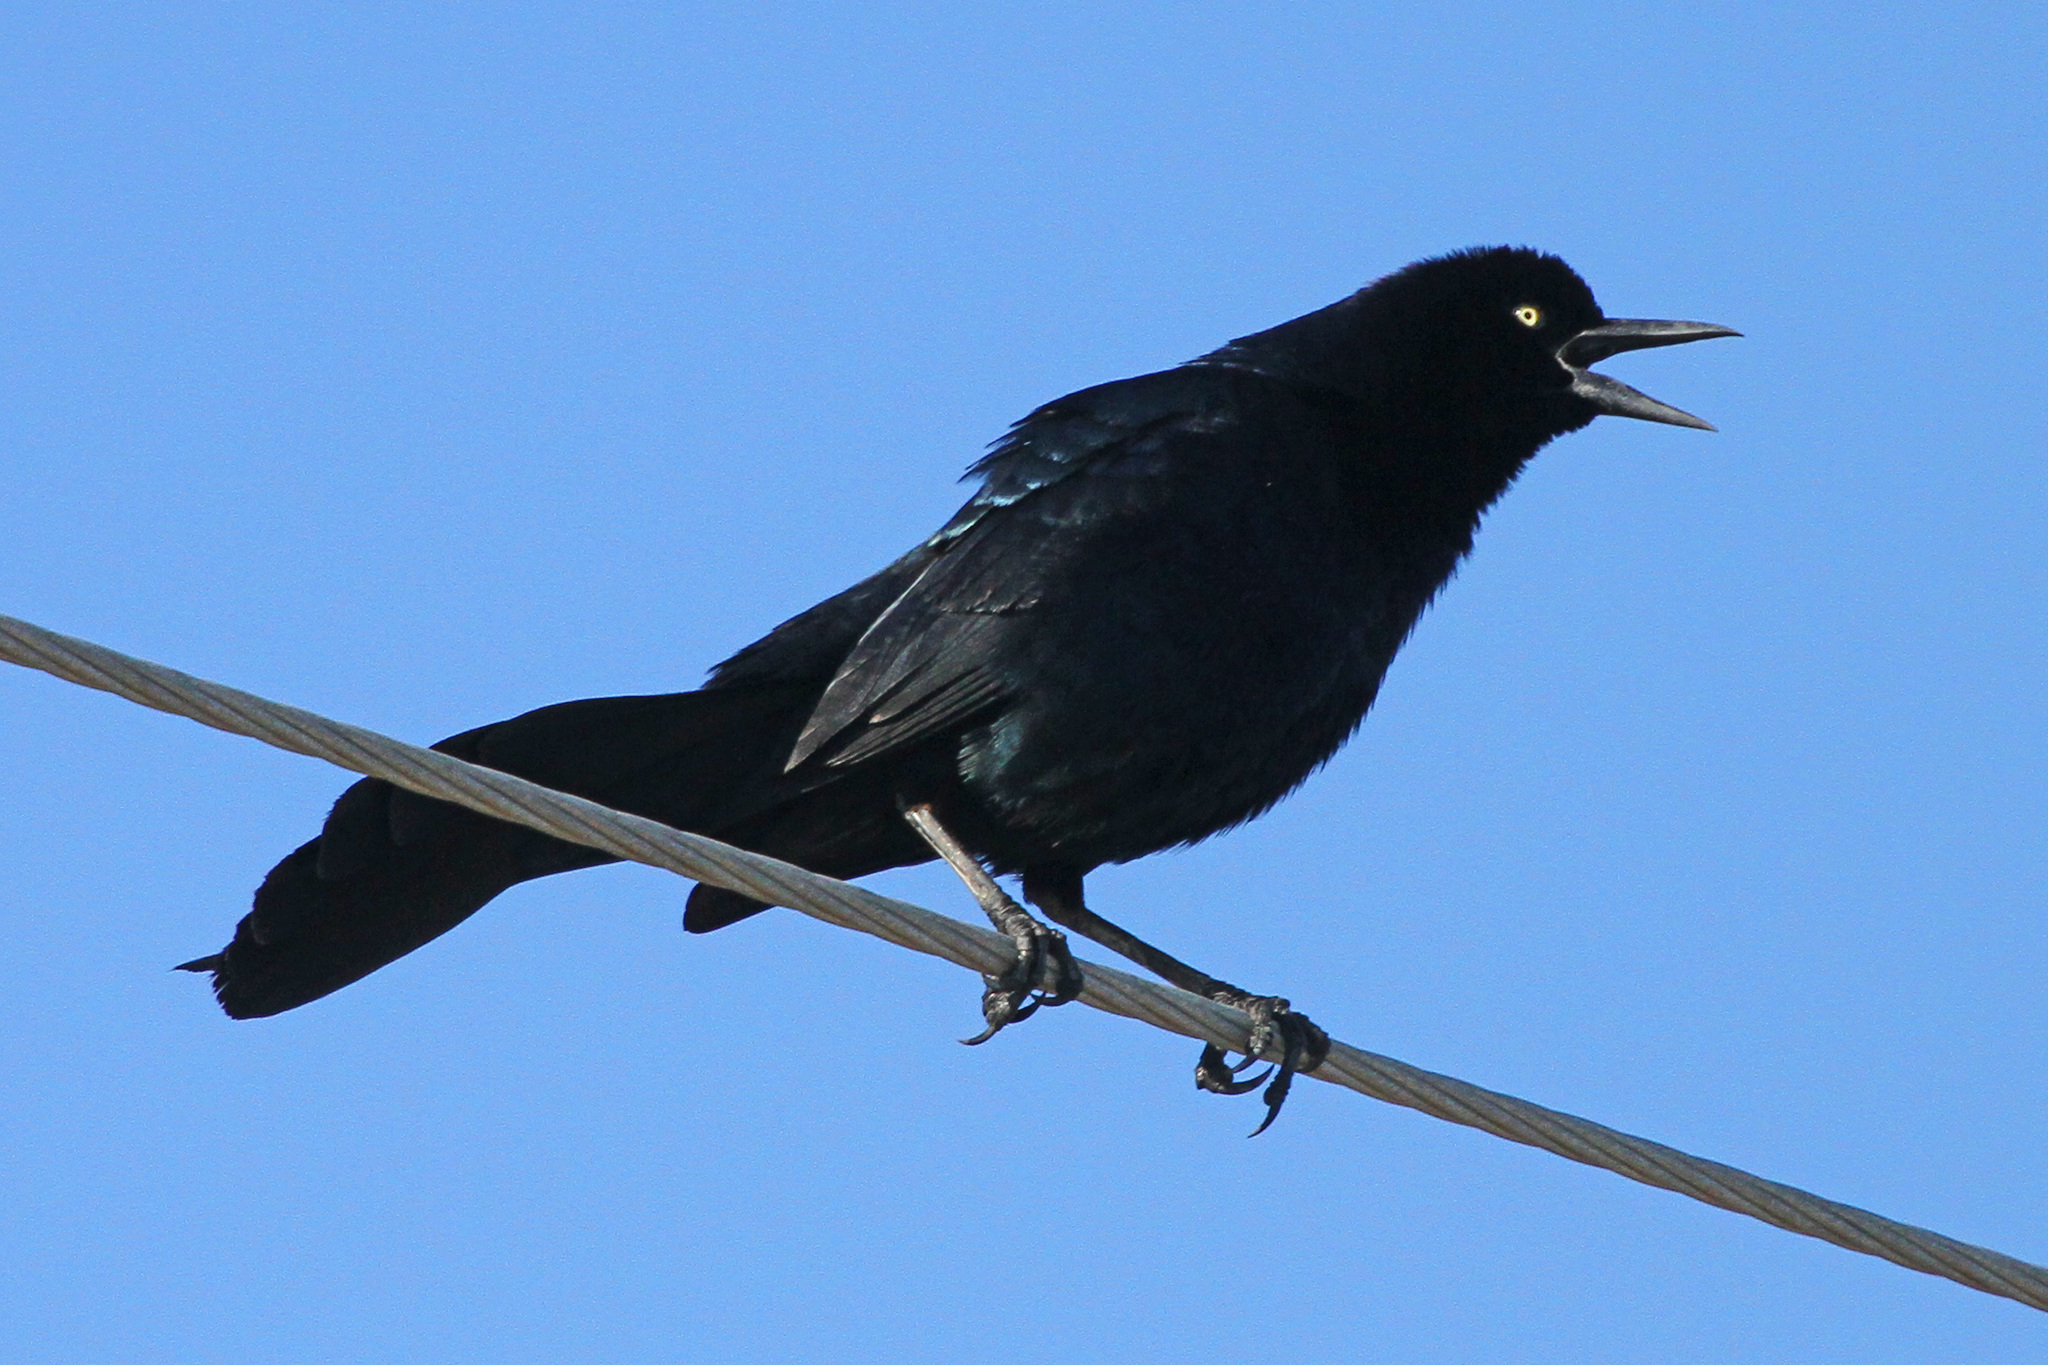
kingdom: Animalia
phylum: Chordata
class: Aves
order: Passeriformes
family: Icteridae
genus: Quiscalus
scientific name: Quiscalus major
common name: Boat-tailed grackle
